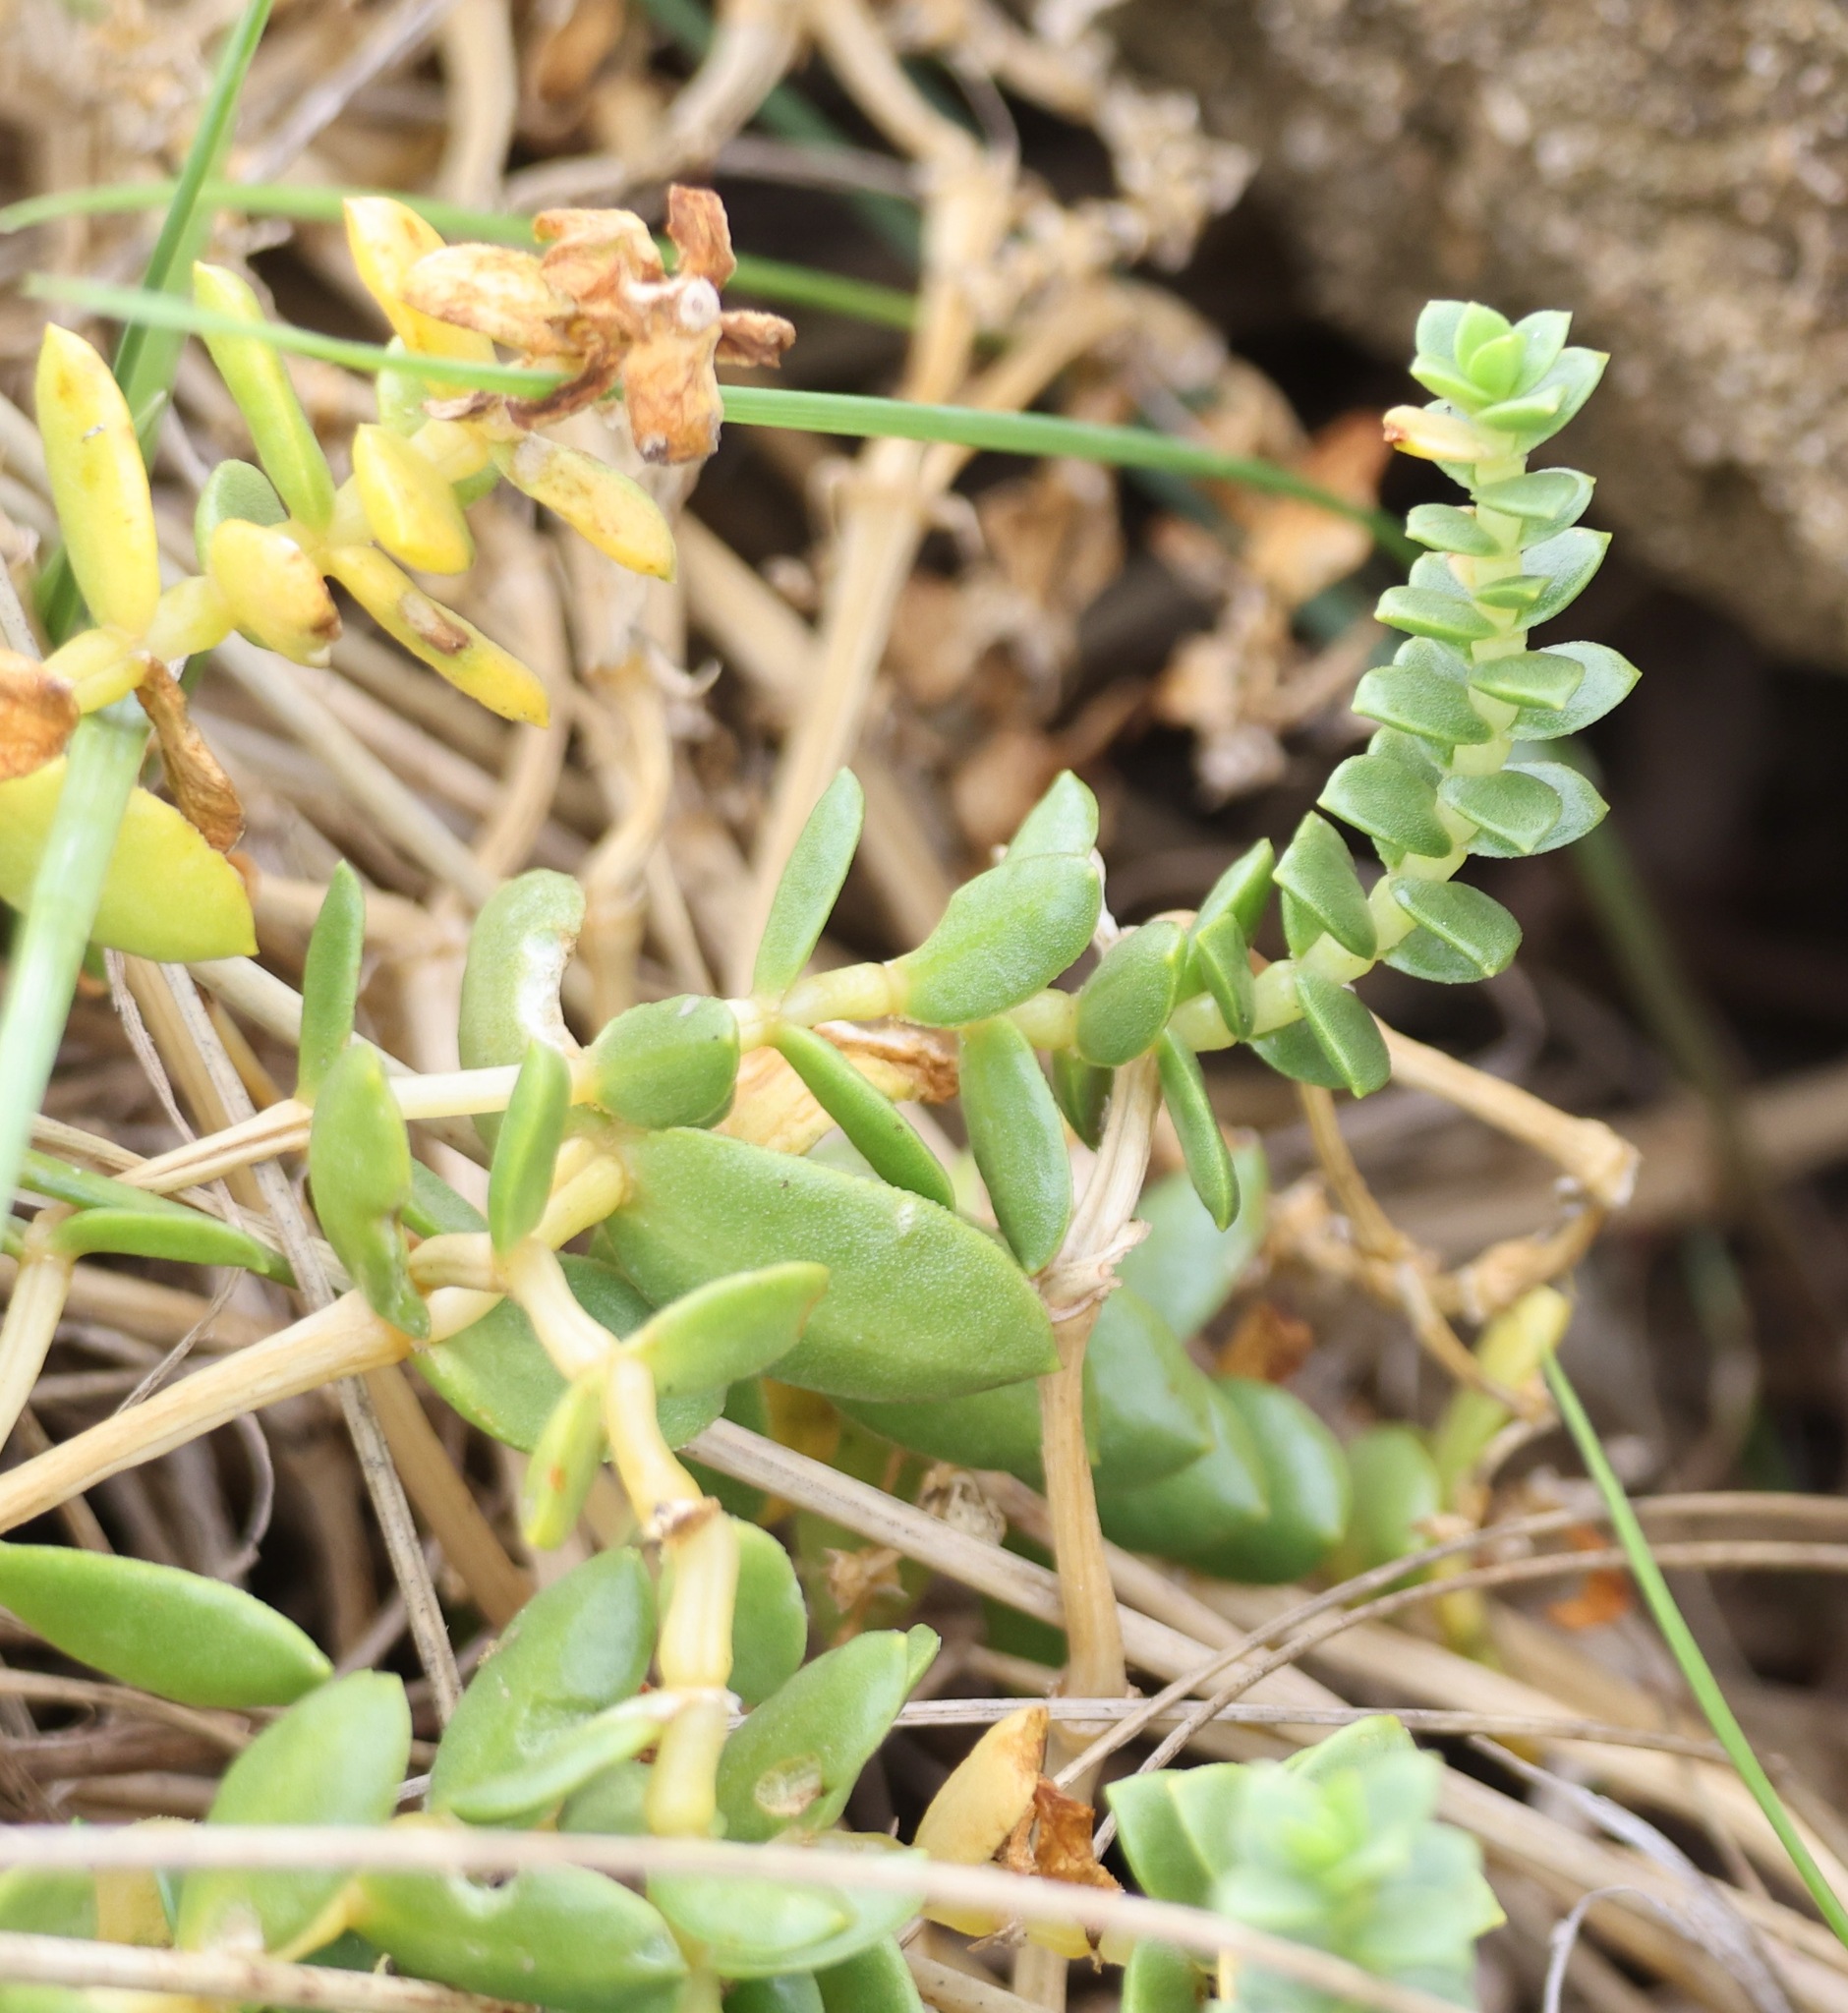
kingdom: Plantae
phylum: Tracheophyta
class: Magnoliopsida
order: Caryophyllales
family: Caryophyllaceae
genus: Honckenya
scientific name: Honckenya peploides
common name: Sea sandwort
